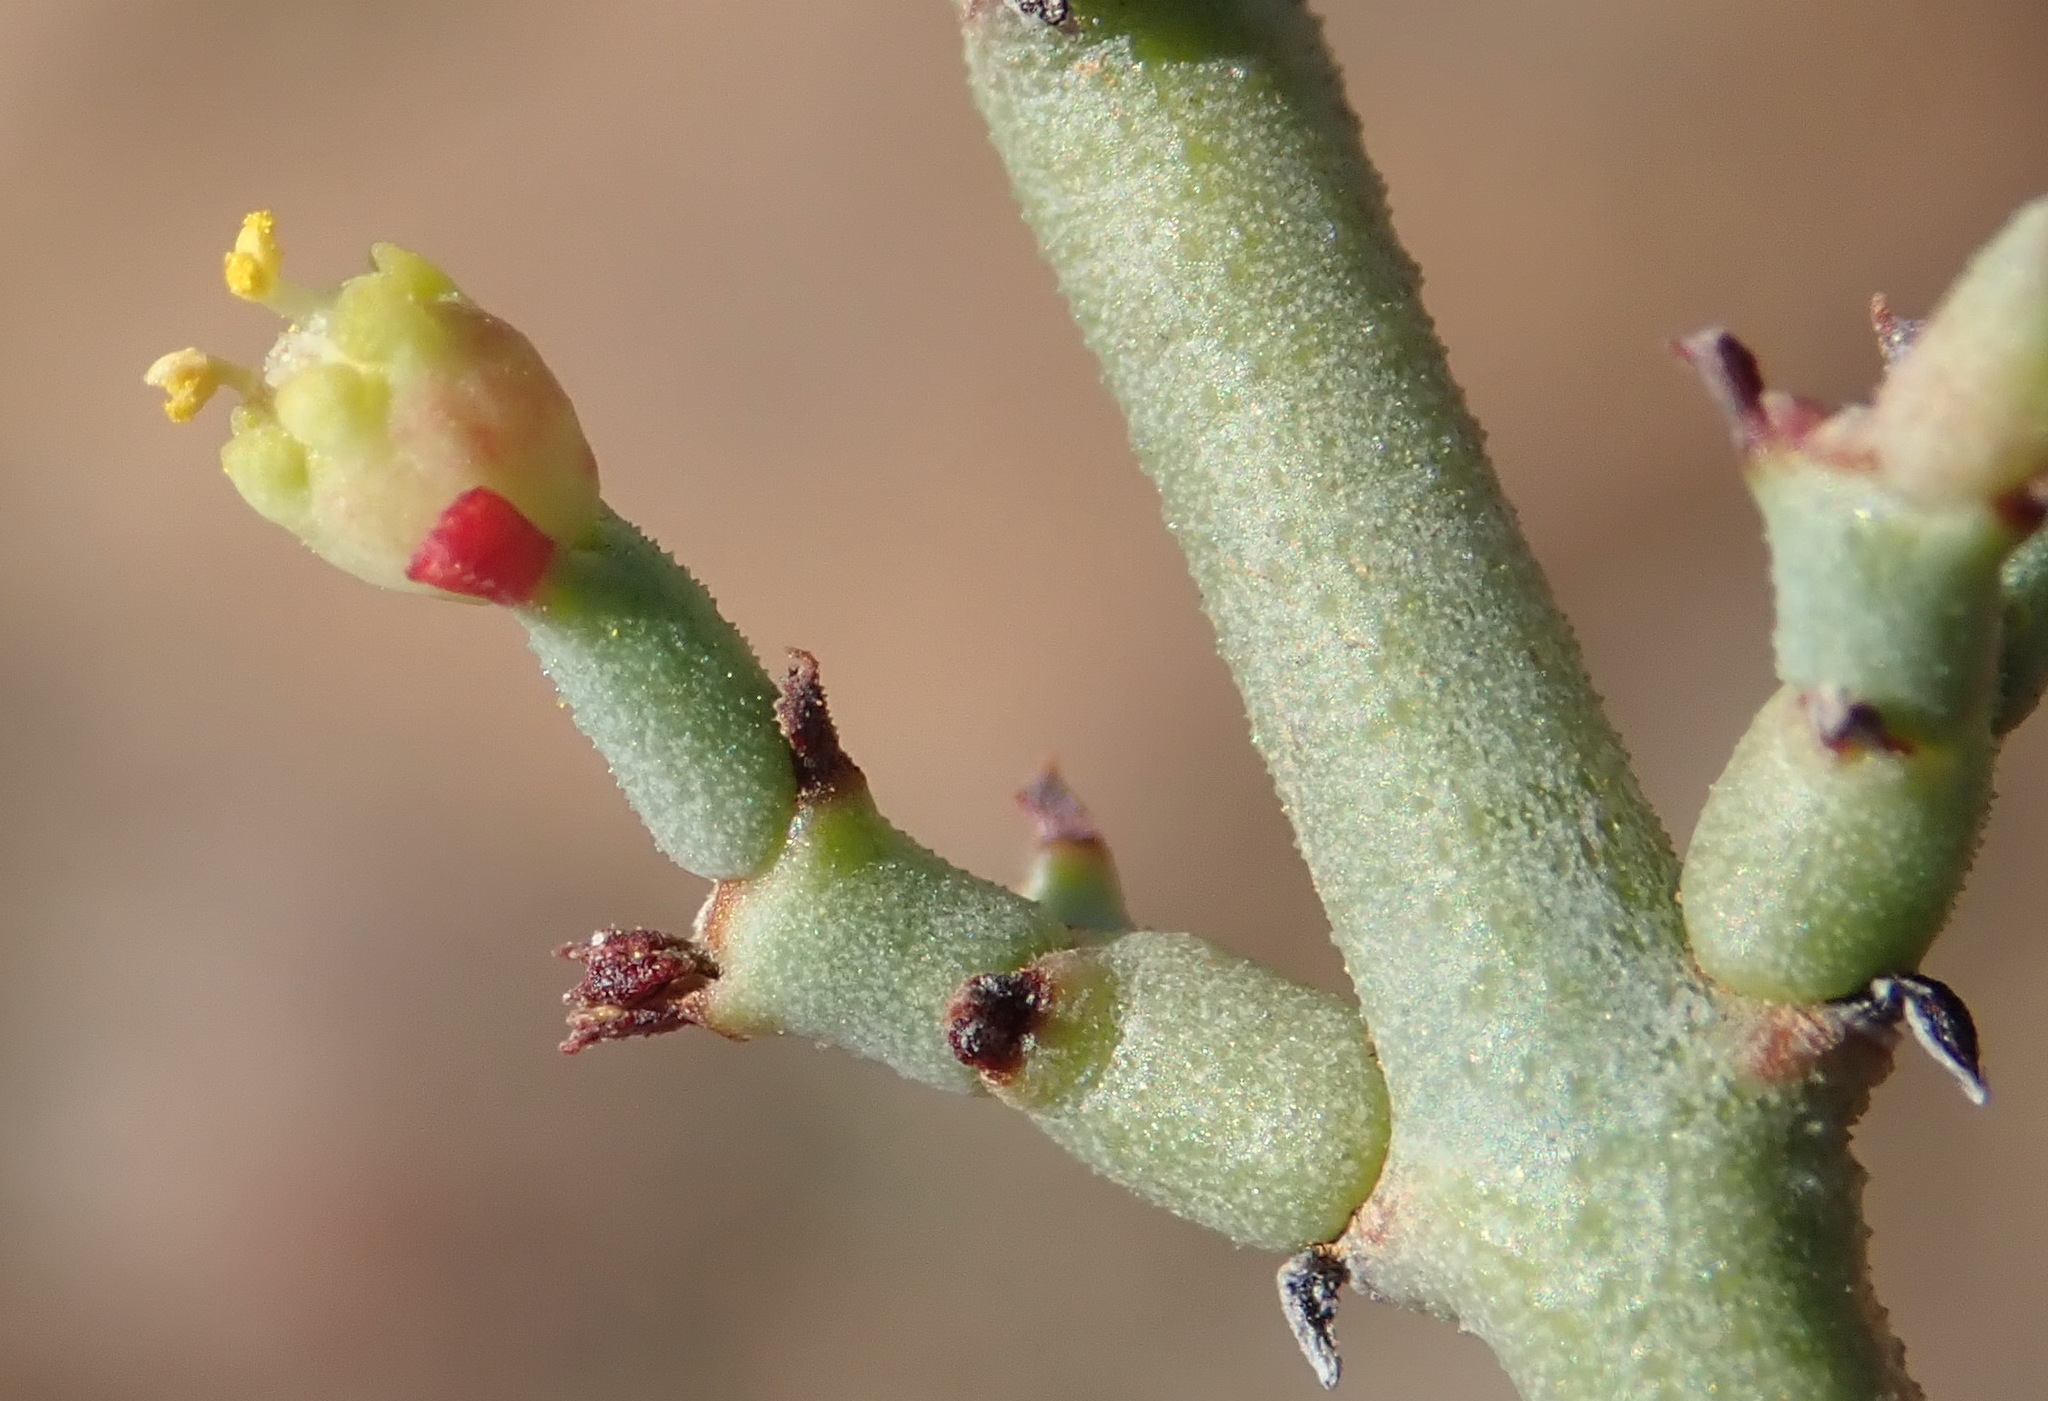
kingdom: Plantae
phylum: Tracheophyta
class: Magnoliopsida
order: Malpighiales
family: Euphorbiaceae
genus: Euphorbia
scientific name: Euphorbia rhombifolia
